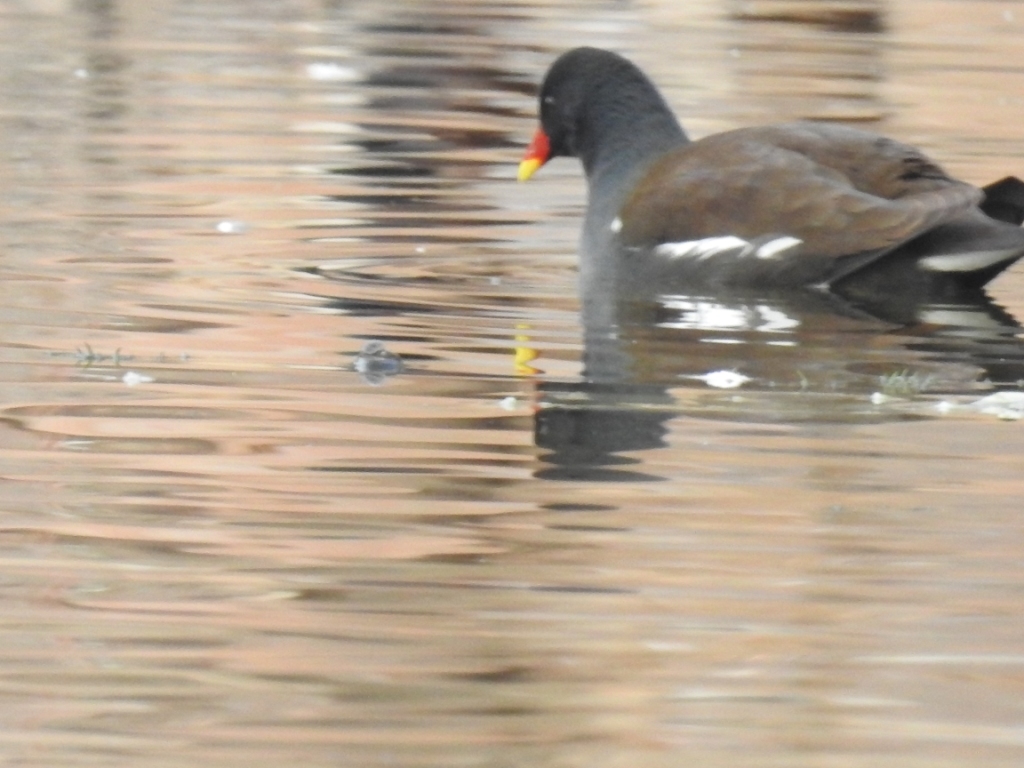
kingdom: Animalia
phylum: Chordata
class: Aves
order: Gruiformes
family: Rallidae
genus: Gallinula
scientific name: Gallinula chloropus
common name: Common moorhen
